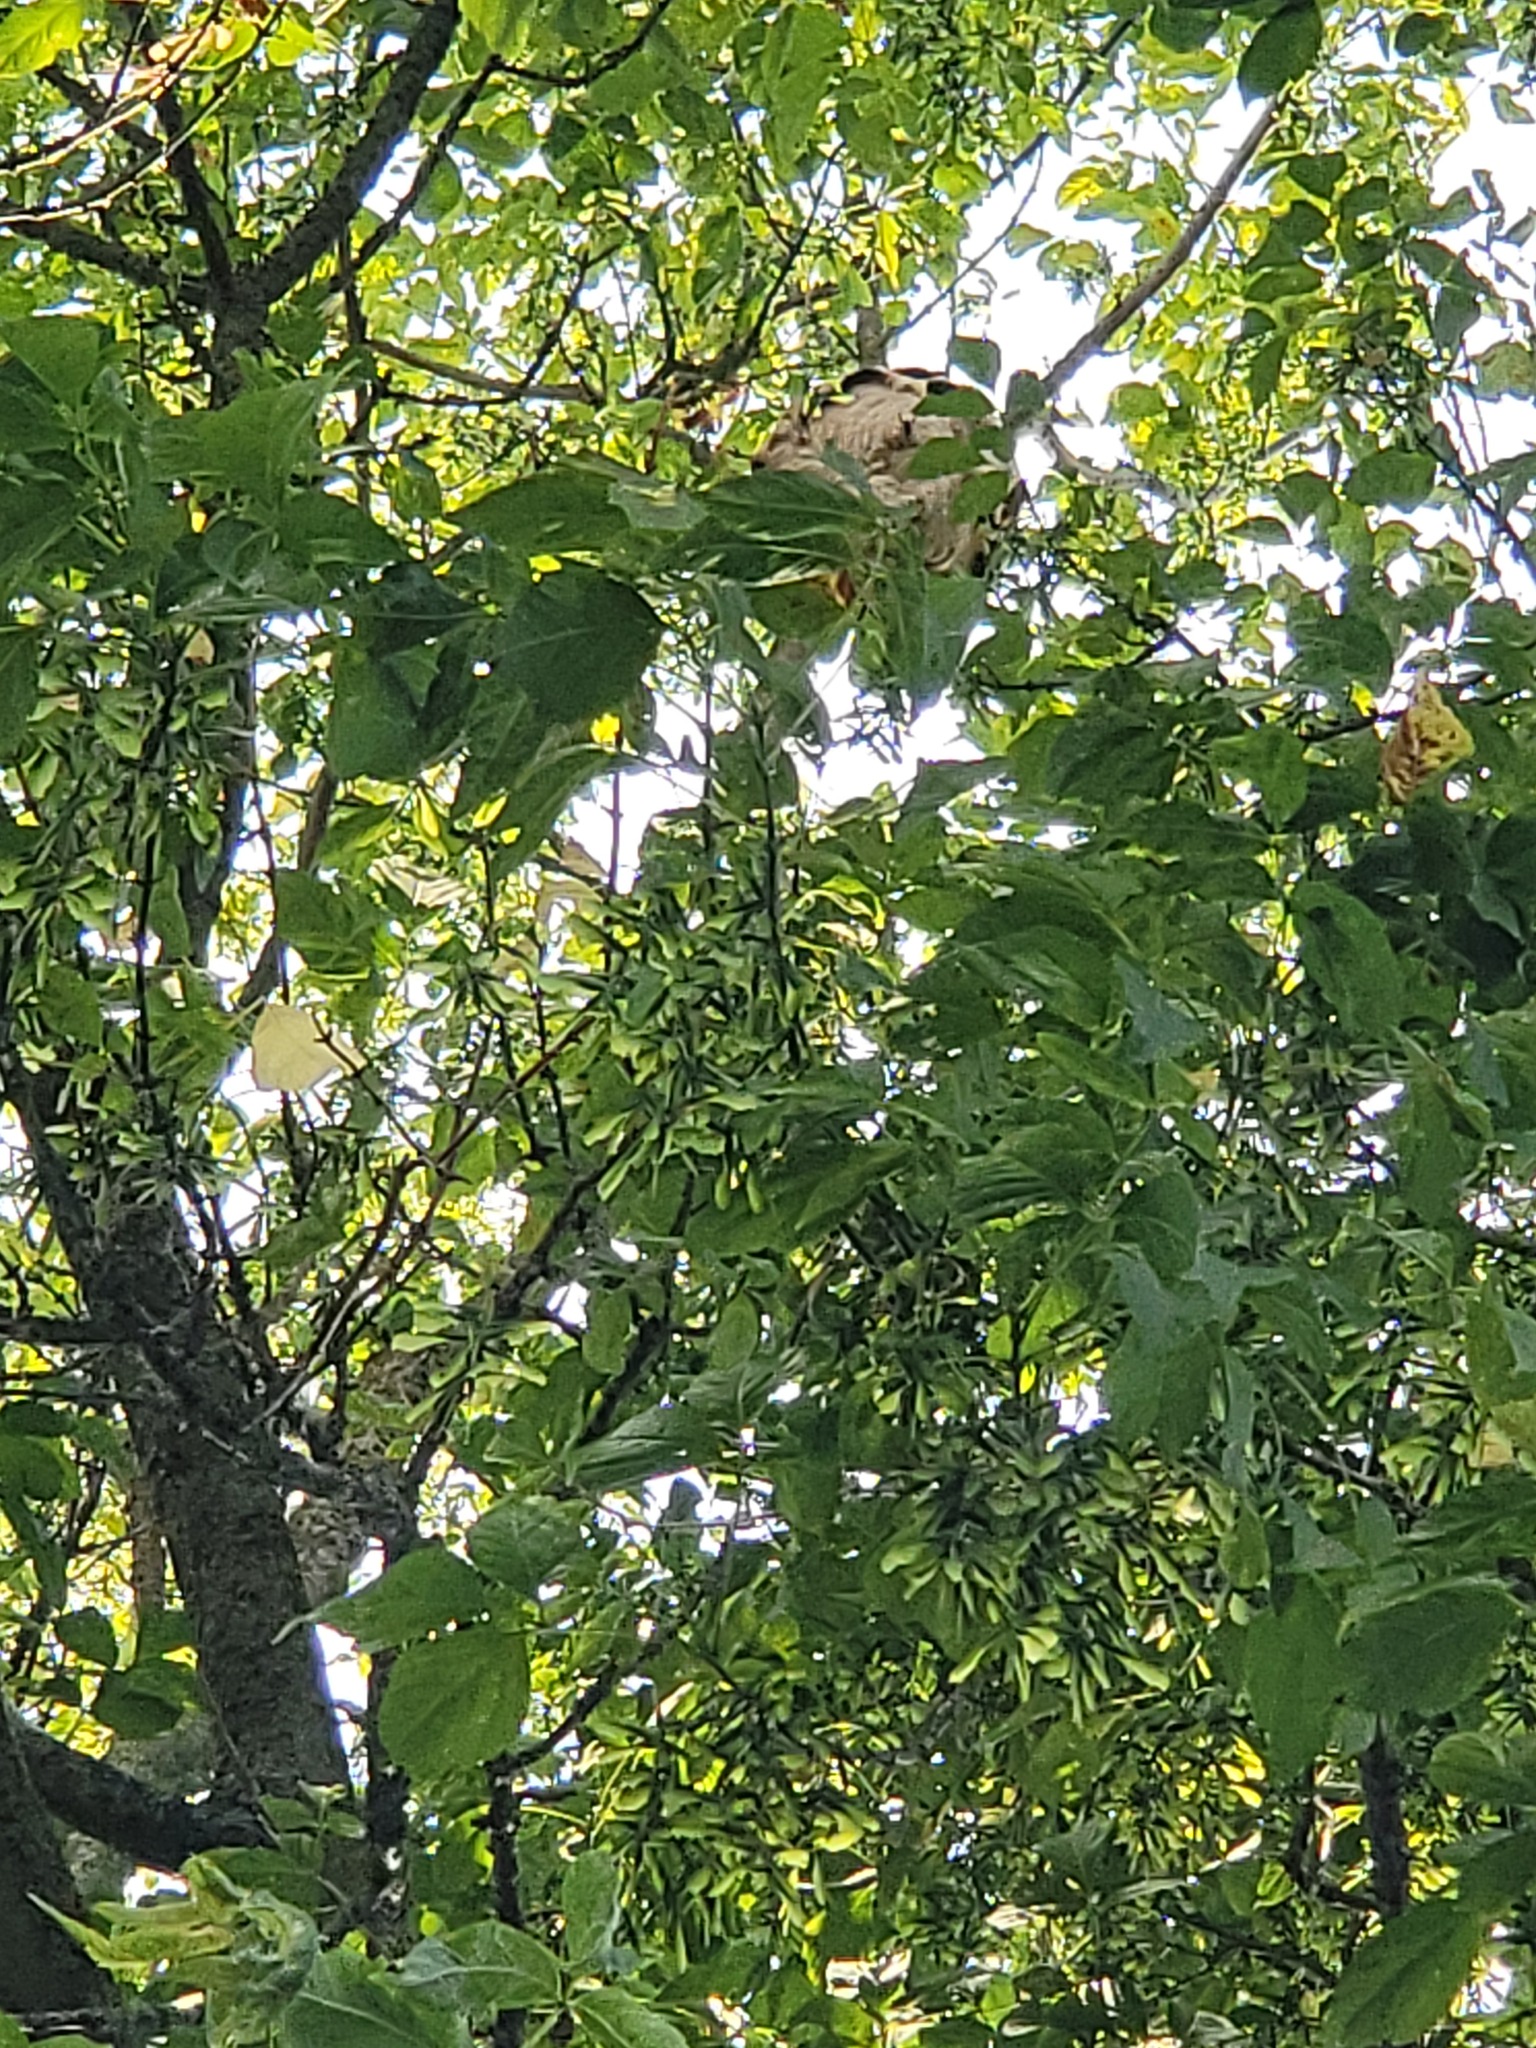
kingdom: Animalia
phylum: Arthropoda
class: Insecta
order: Hymenoptera
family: Vespidae
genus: Vespa
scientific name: Vespa velutina
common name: Asian hornet
